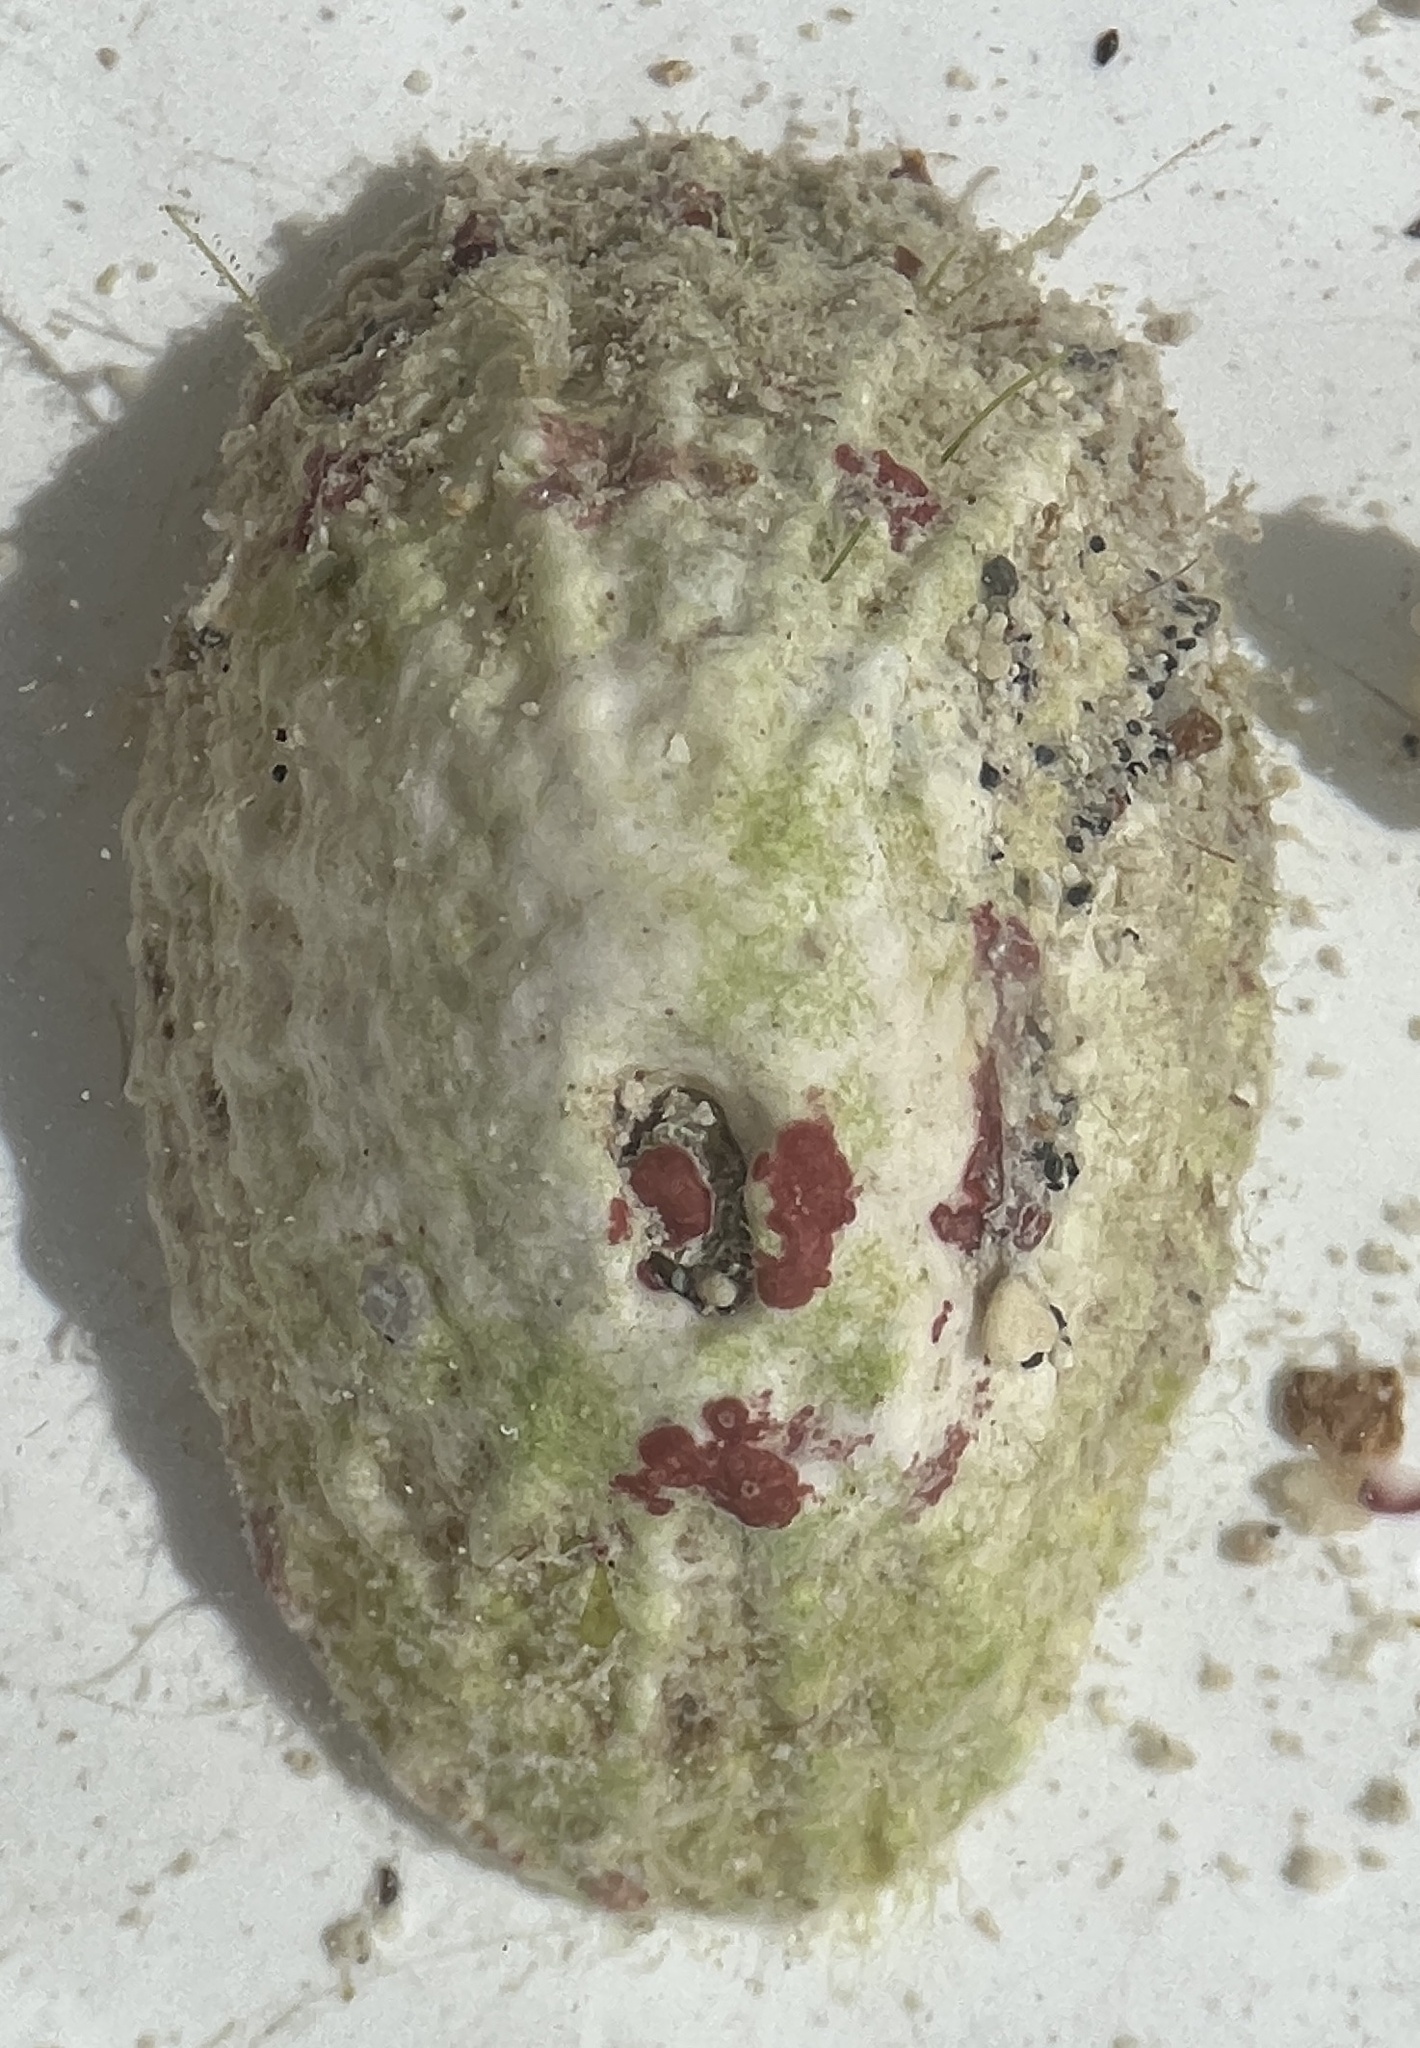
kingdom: Animalia
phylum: Mollusca
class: Gastropoda
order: Lepetellida
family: Fissurellidae
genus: Diodora
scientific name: Diodora cayenensis
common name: Cayenne keyhole limpet
